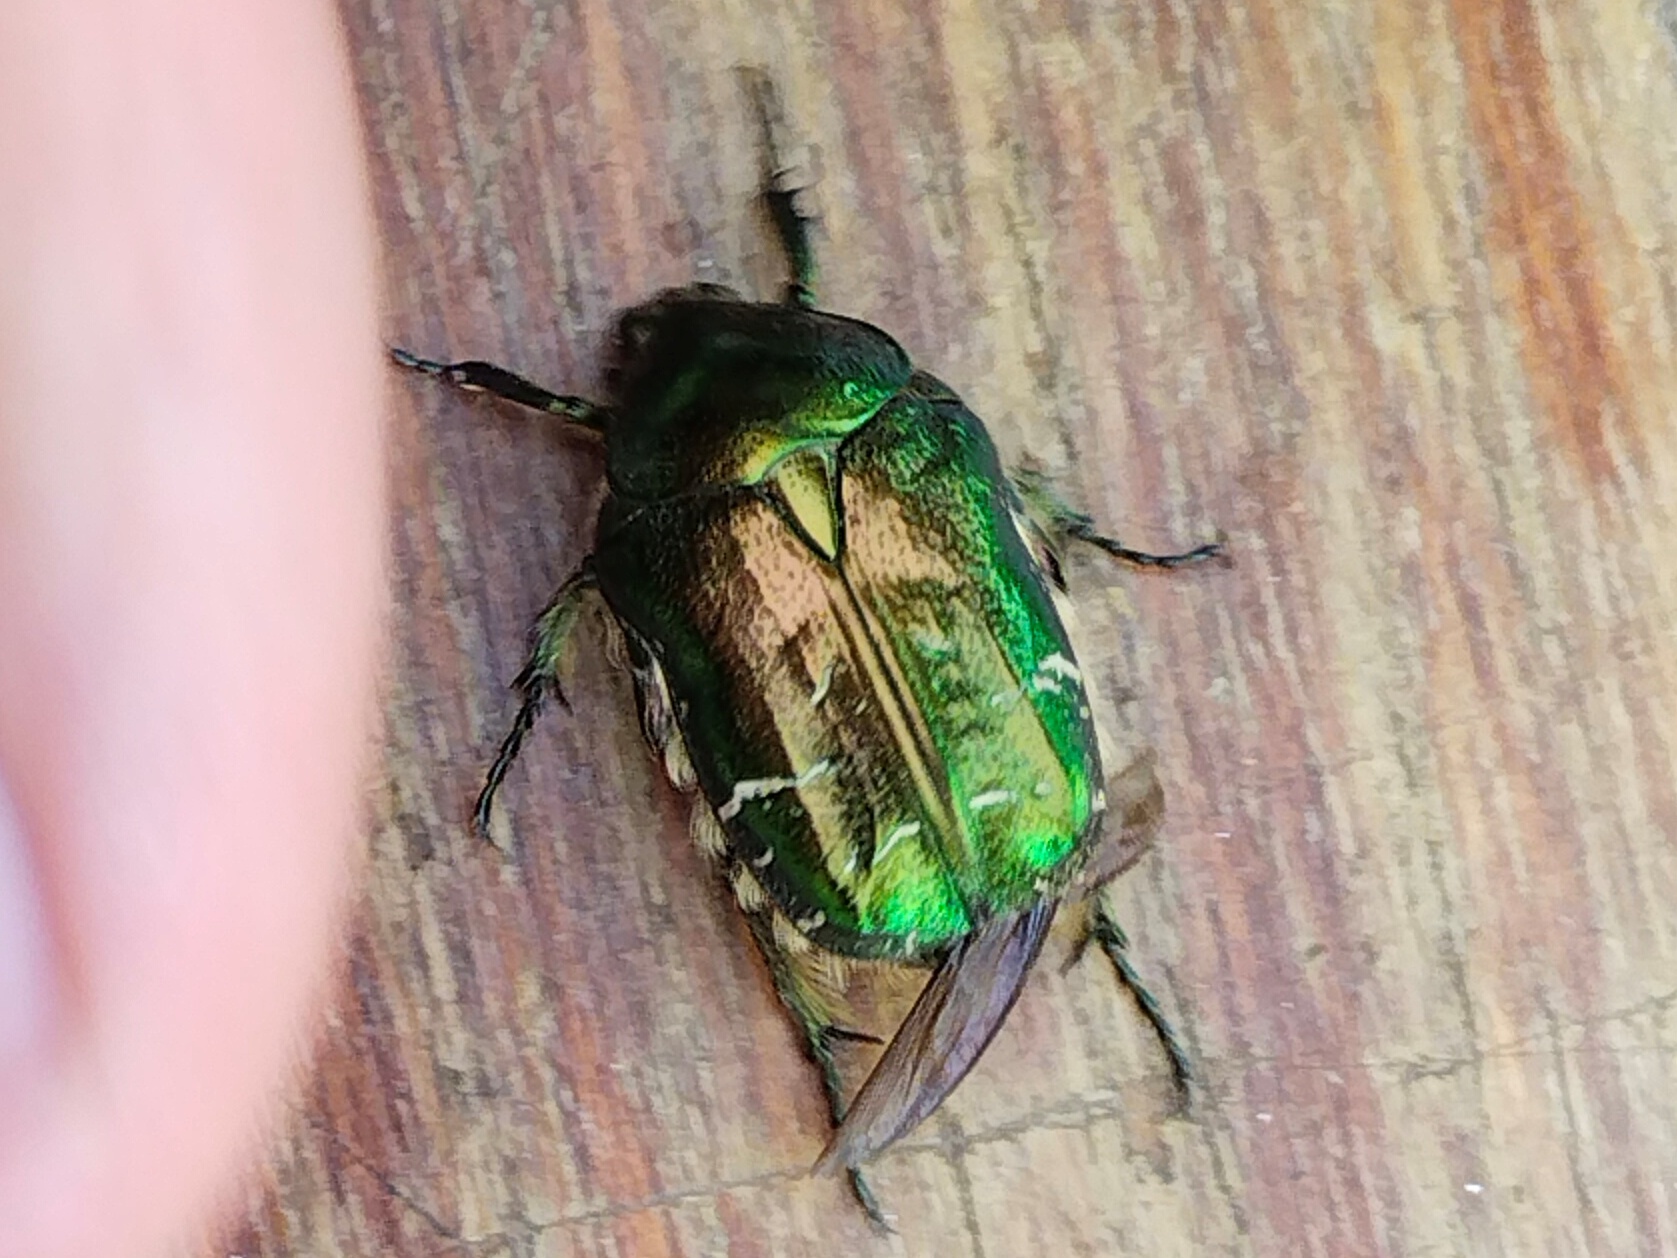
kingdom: Animalia
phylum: Arthropoda
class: Insecta
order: Coleoptera
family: Scarabaeidae
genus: Cetonia
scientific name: Cetonia aurata
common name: Rose chafer
